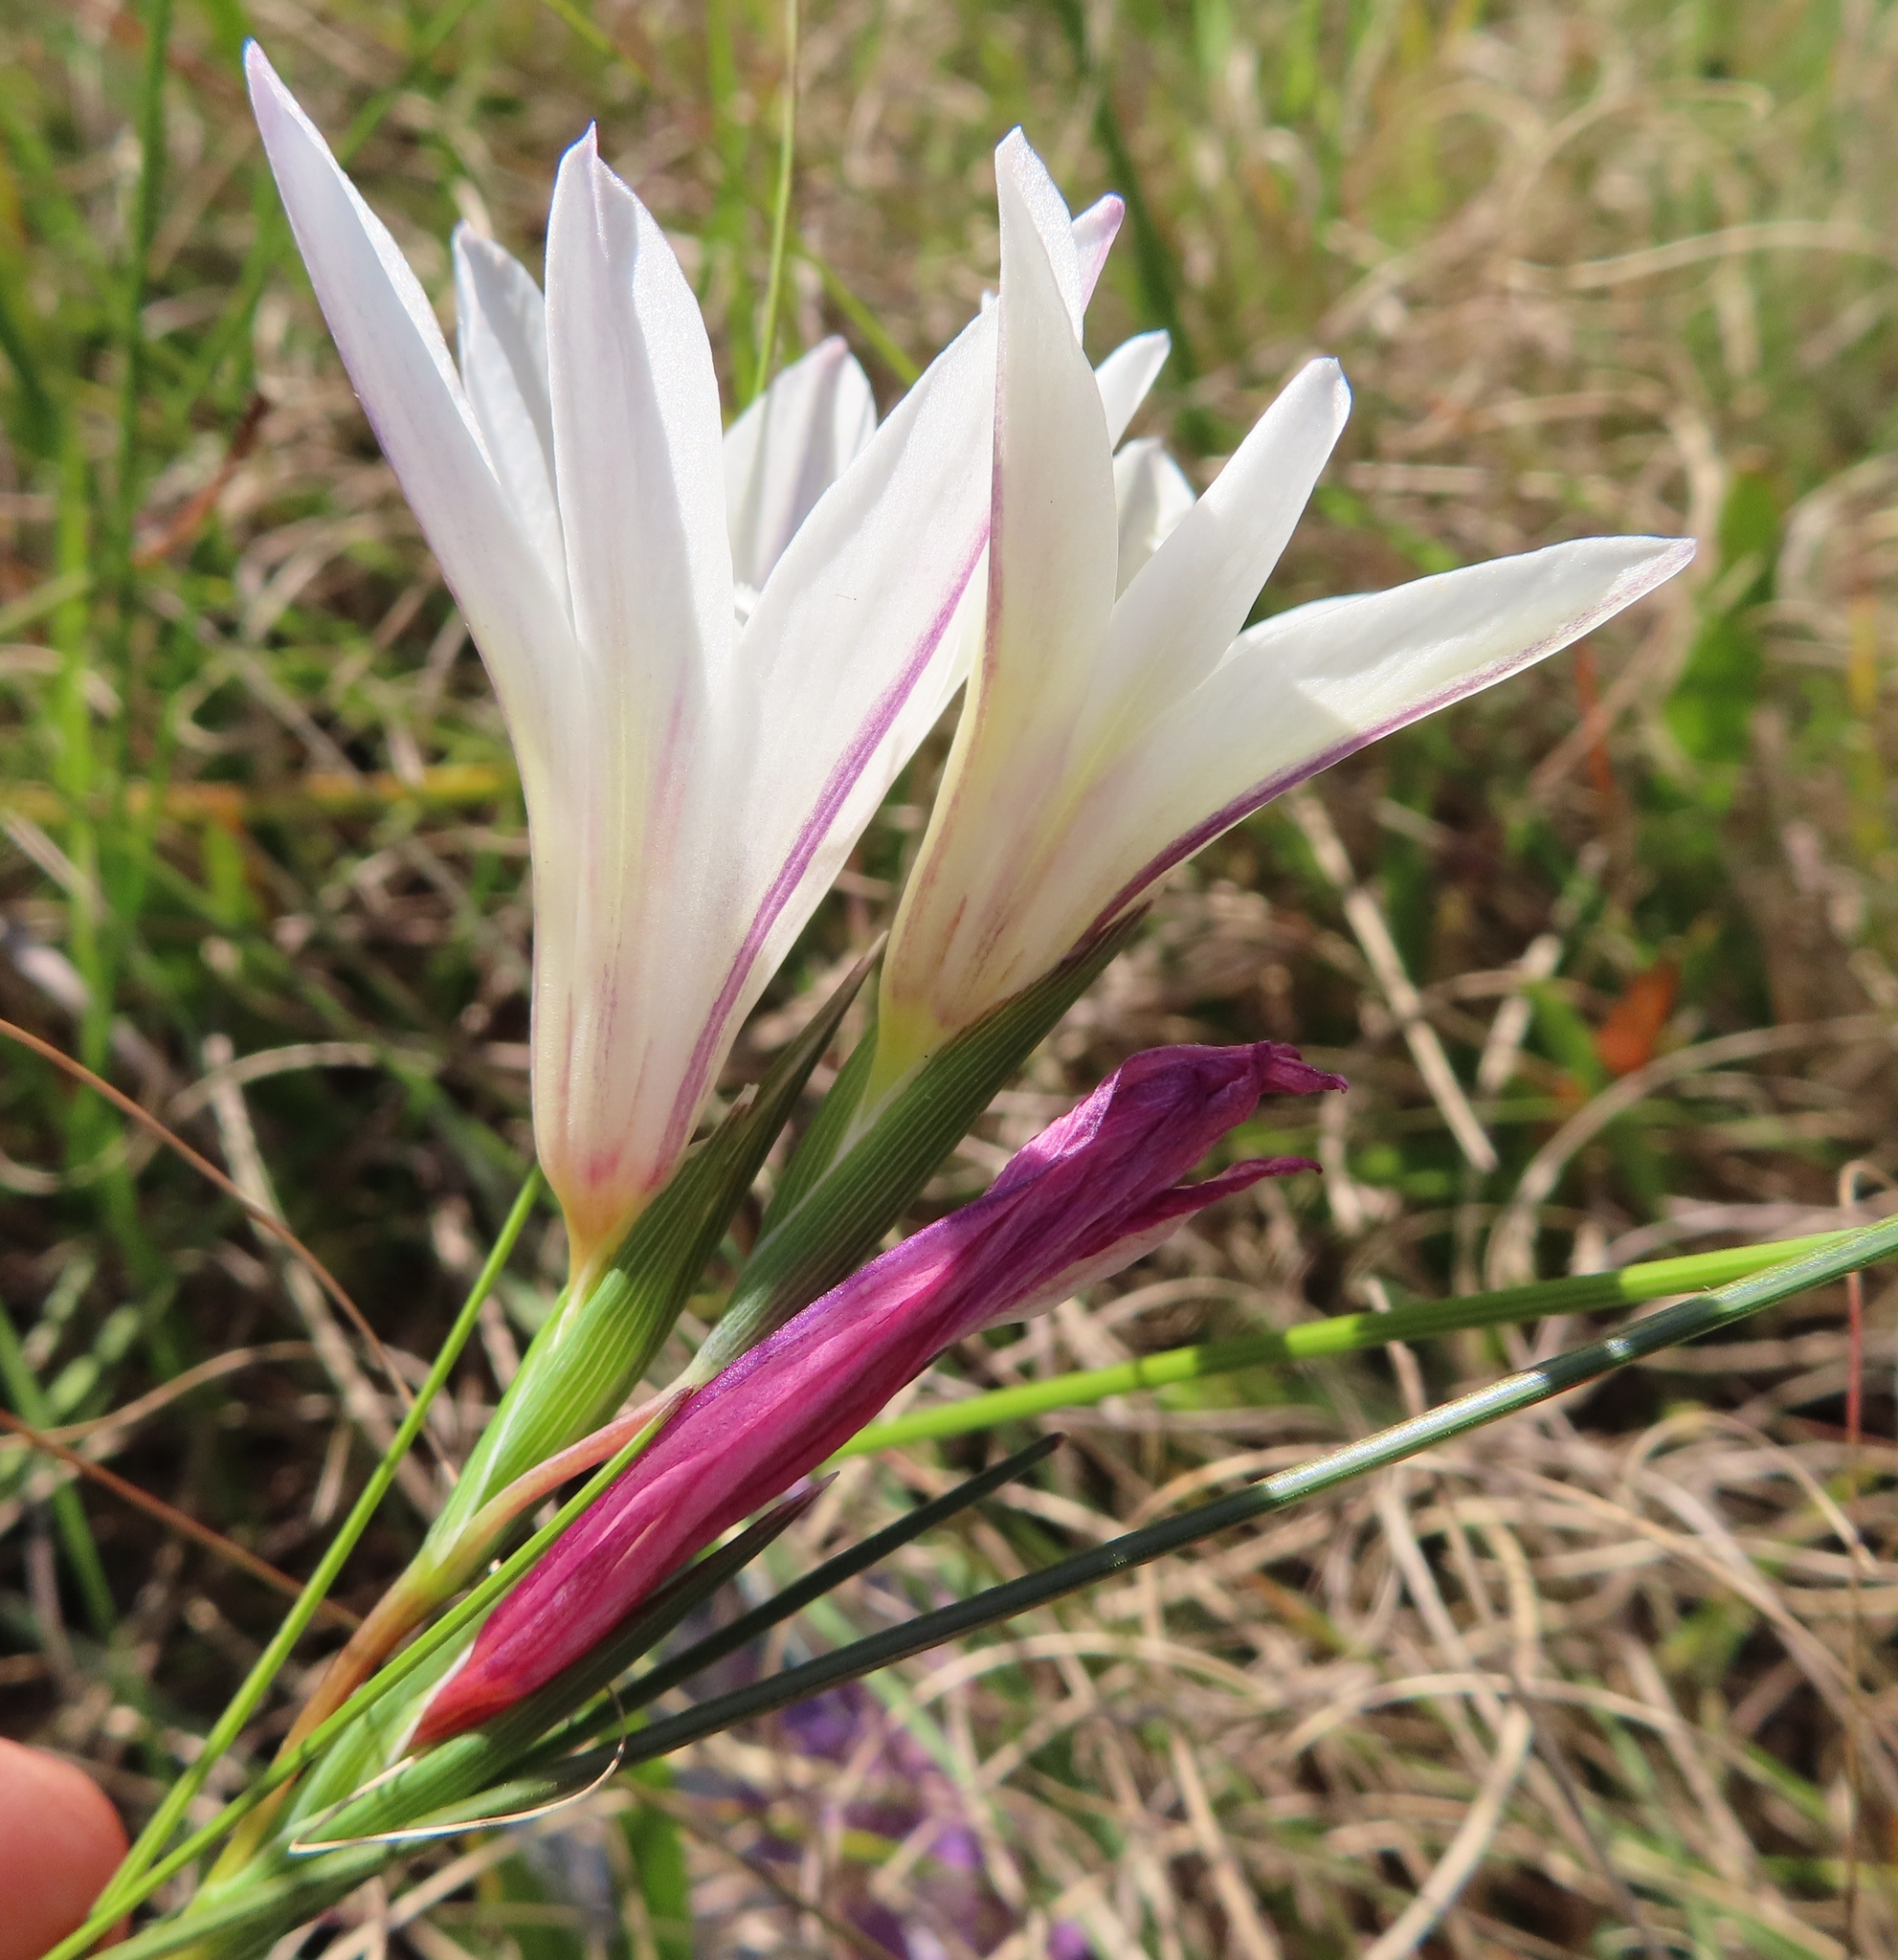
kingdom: Plantae
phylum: Tracheophyta
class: Liliopsida
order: Asparagales
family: Iridaceae
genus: Gladiolus
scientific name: Gladiolus trichonemifolius
